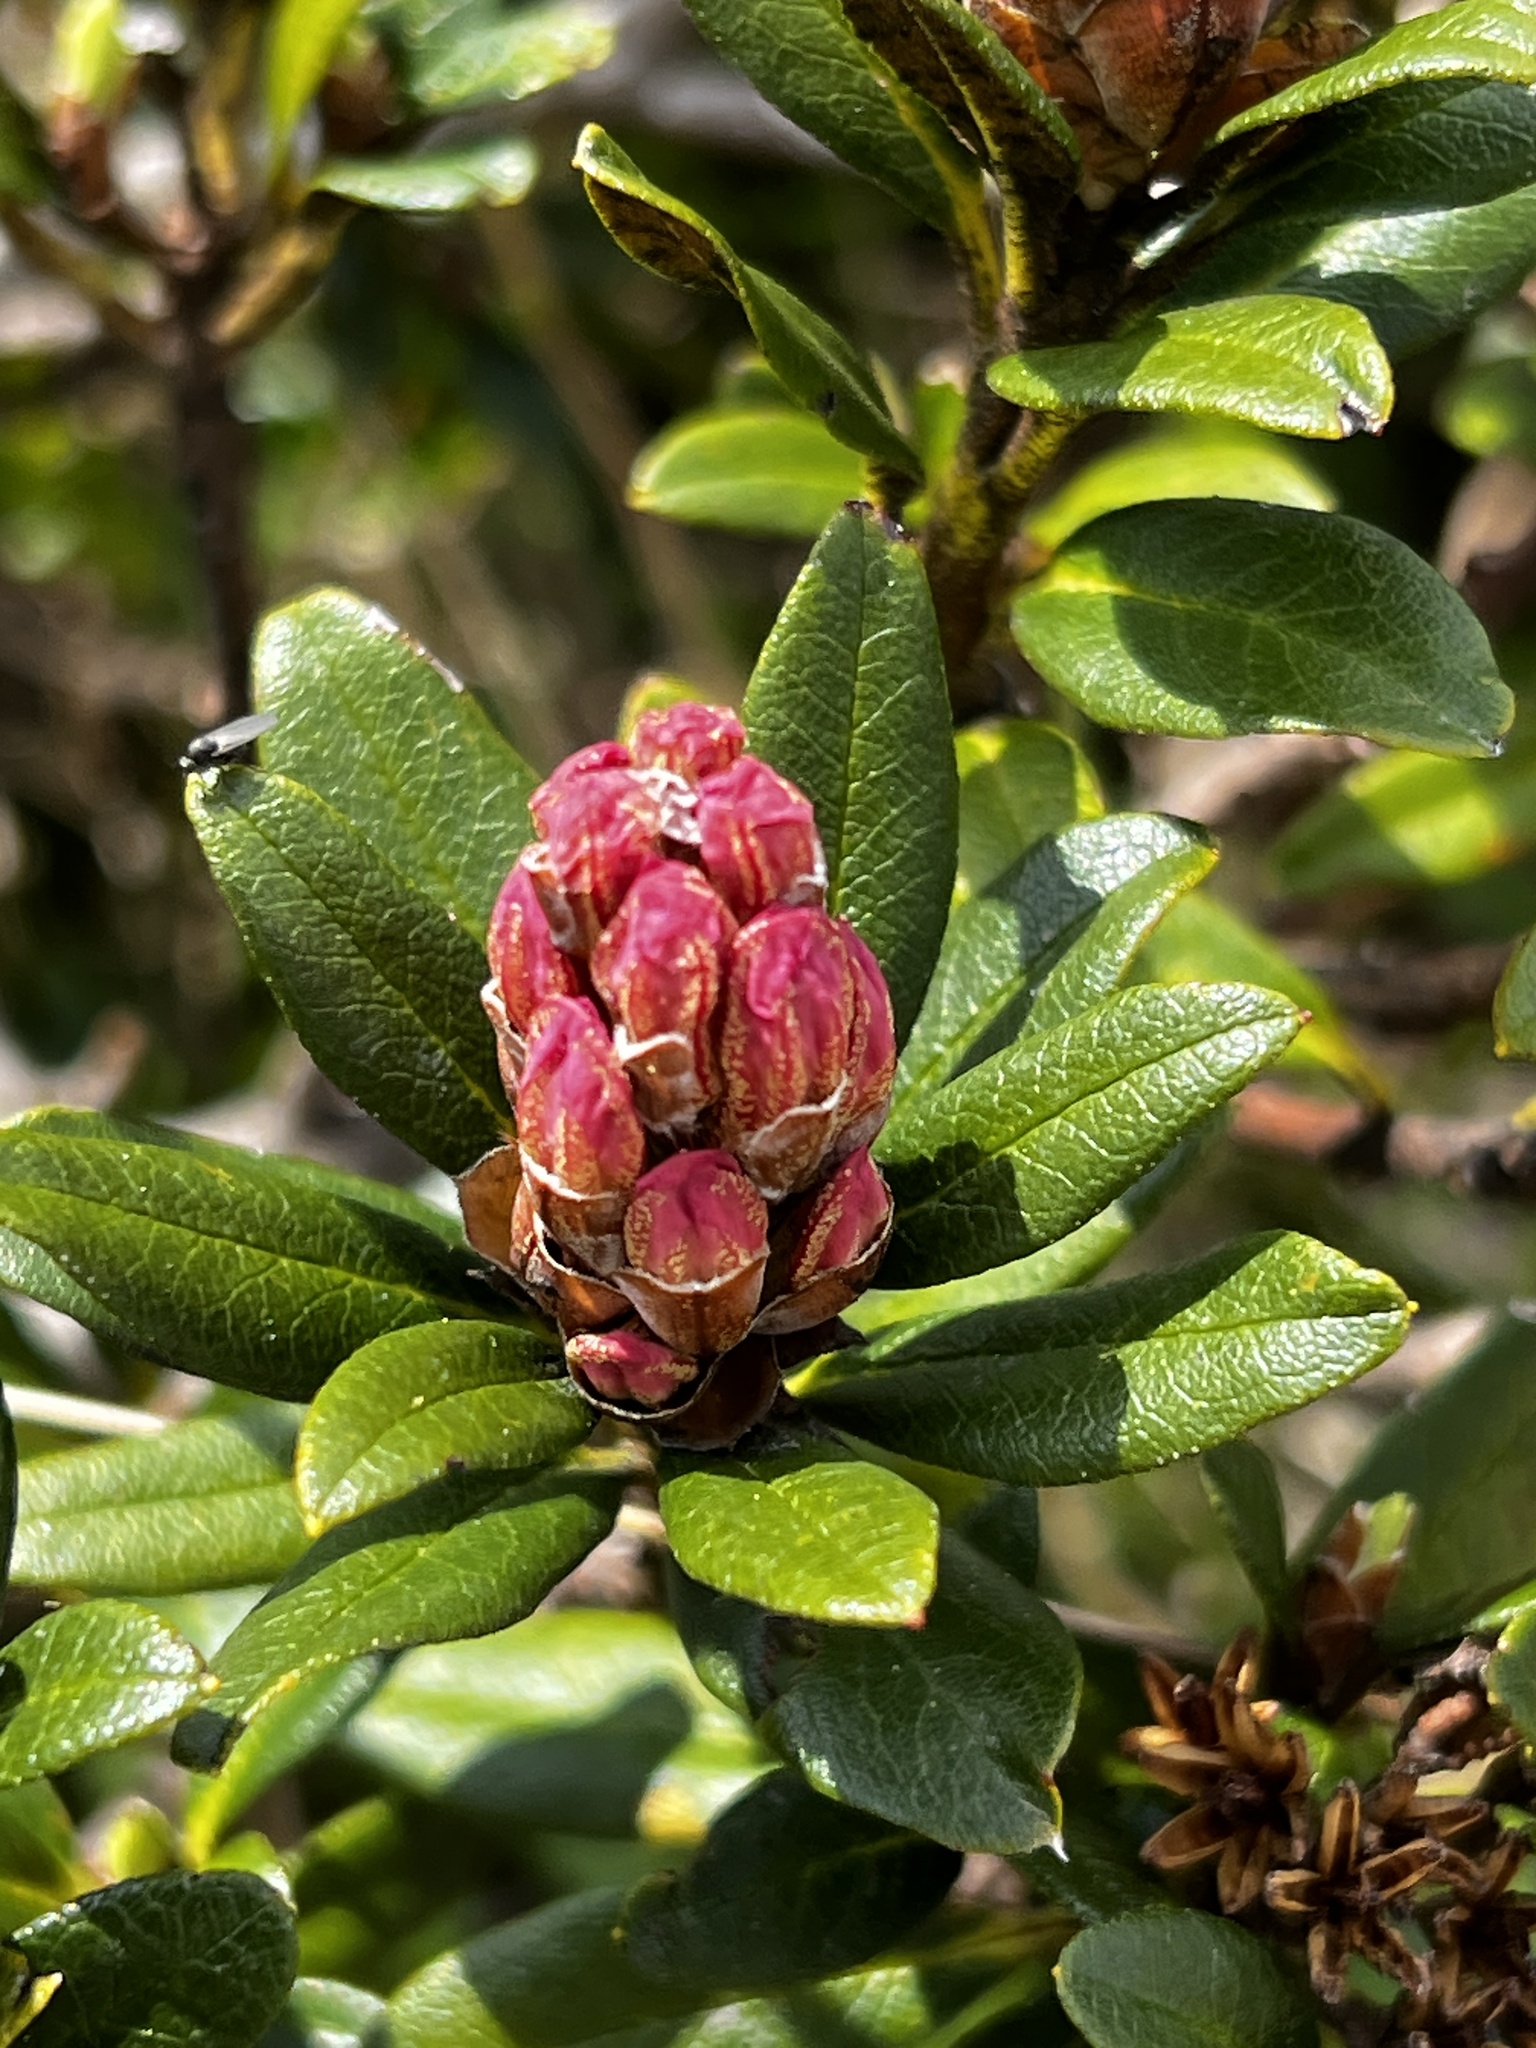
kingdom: Plantae
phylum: Tracheophyta
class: Magnoliopsida
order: Ericales
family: Ericaceae
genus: Rhododendron
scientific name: Rhododendron ferrugineum
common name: Alpenrose
